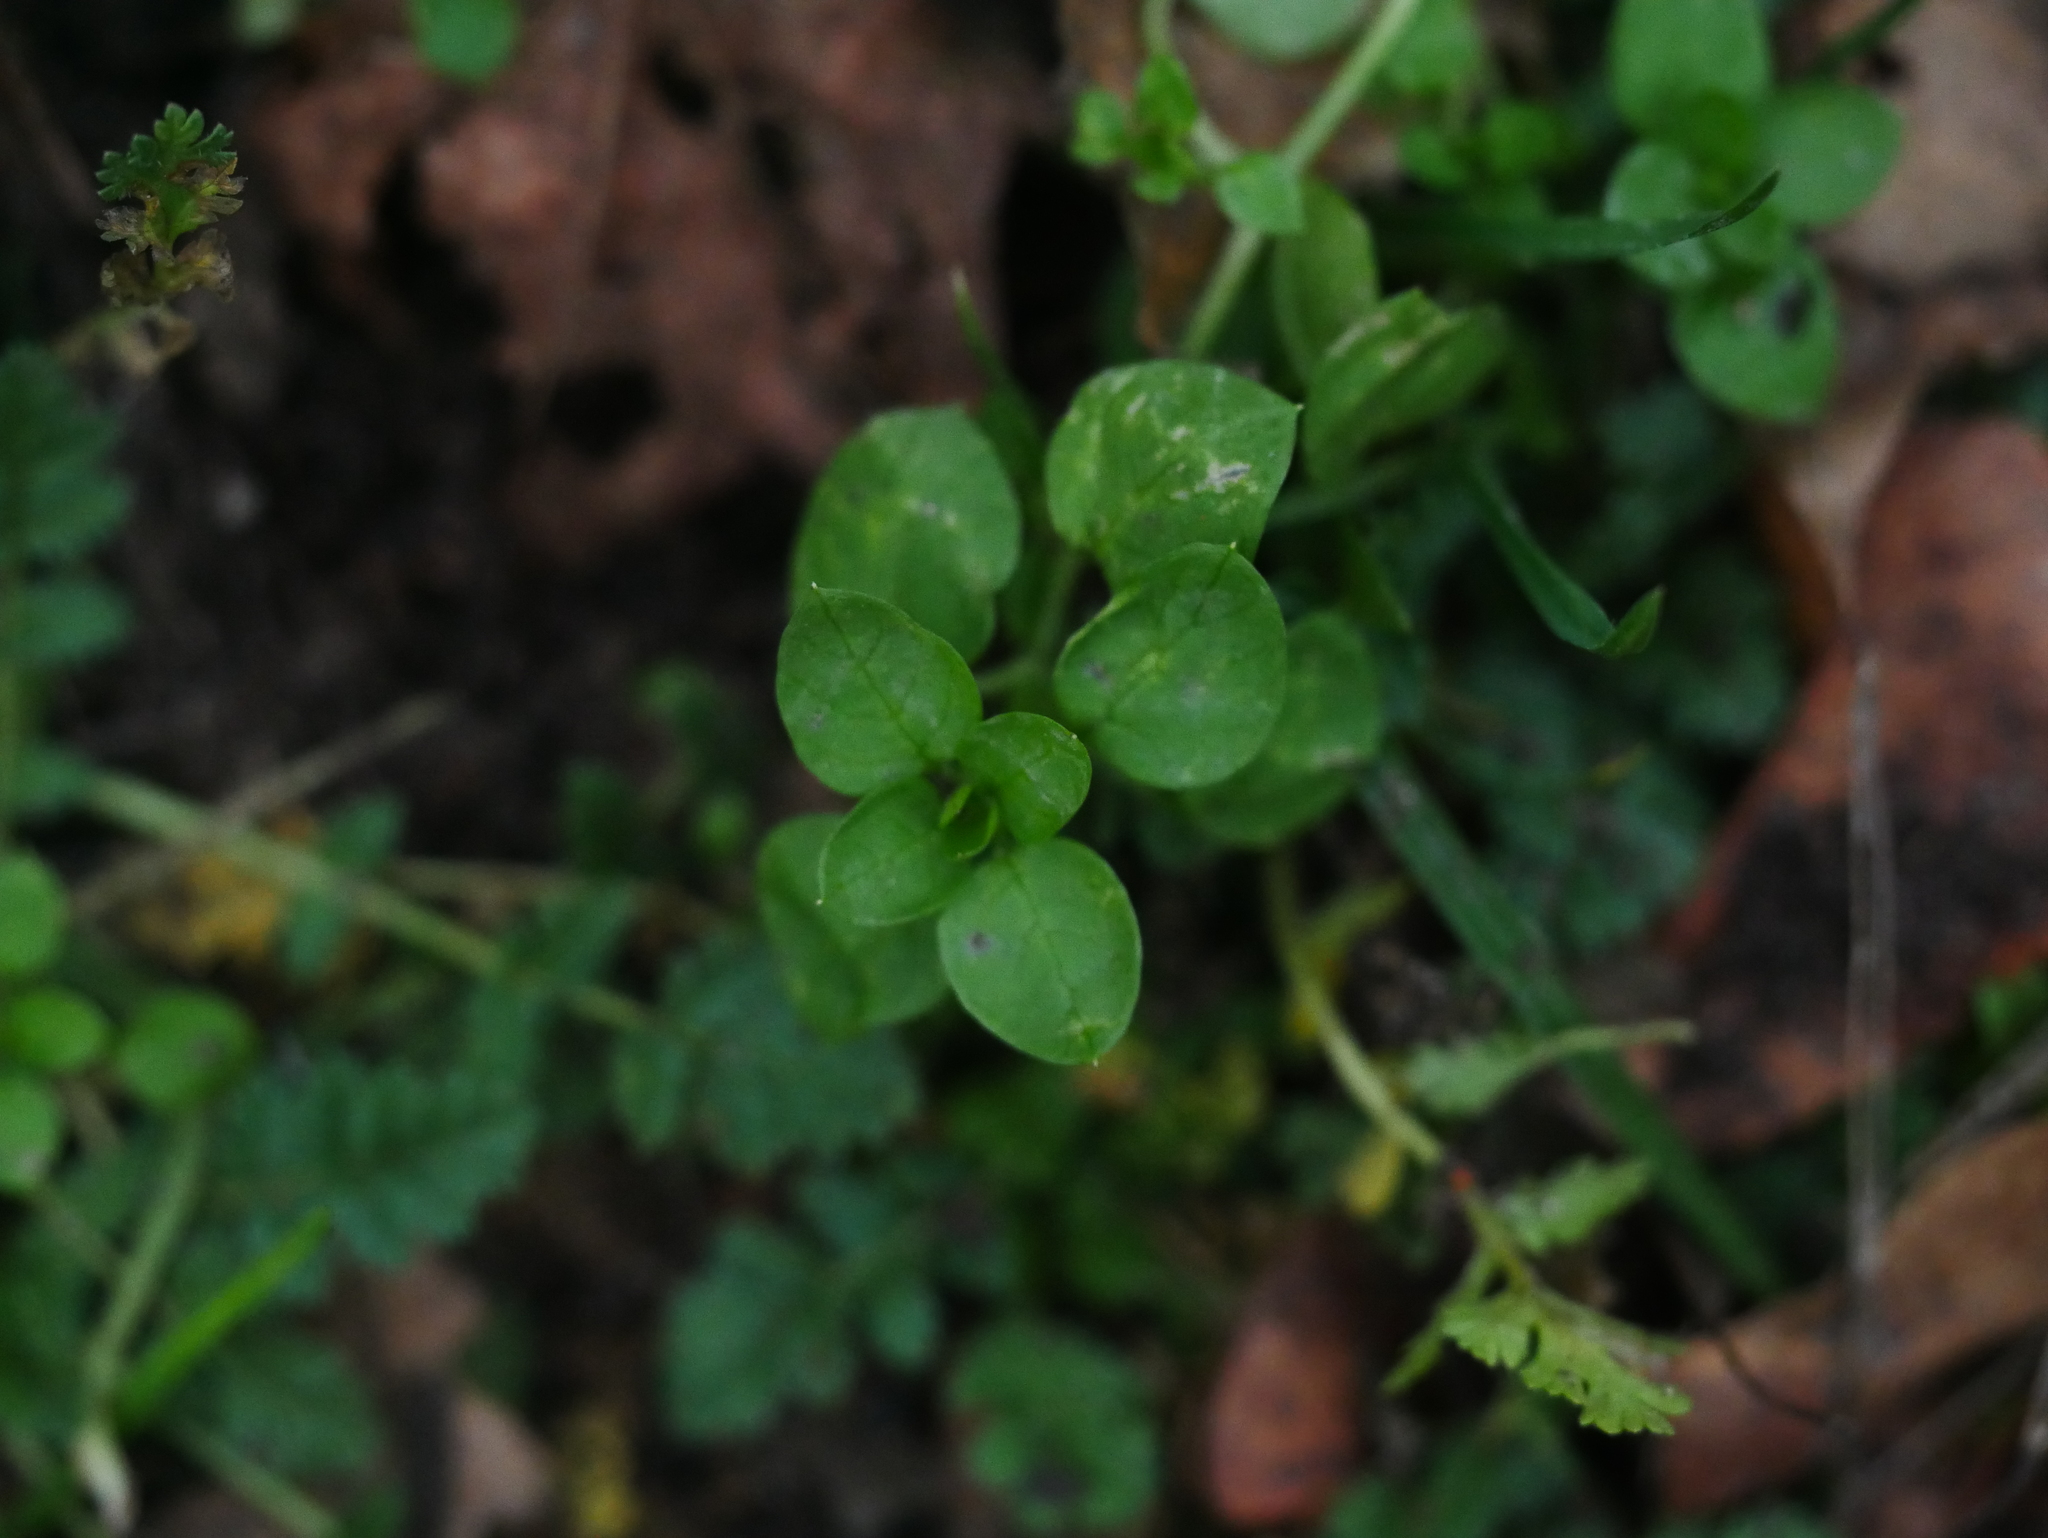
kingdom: Plantae
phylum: Tracheophyta
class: Magnoliopsida
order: Caryophyllales
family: Caryophyllaceae
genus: Stellaria
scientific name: Stellaria media
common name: Common chickweed
